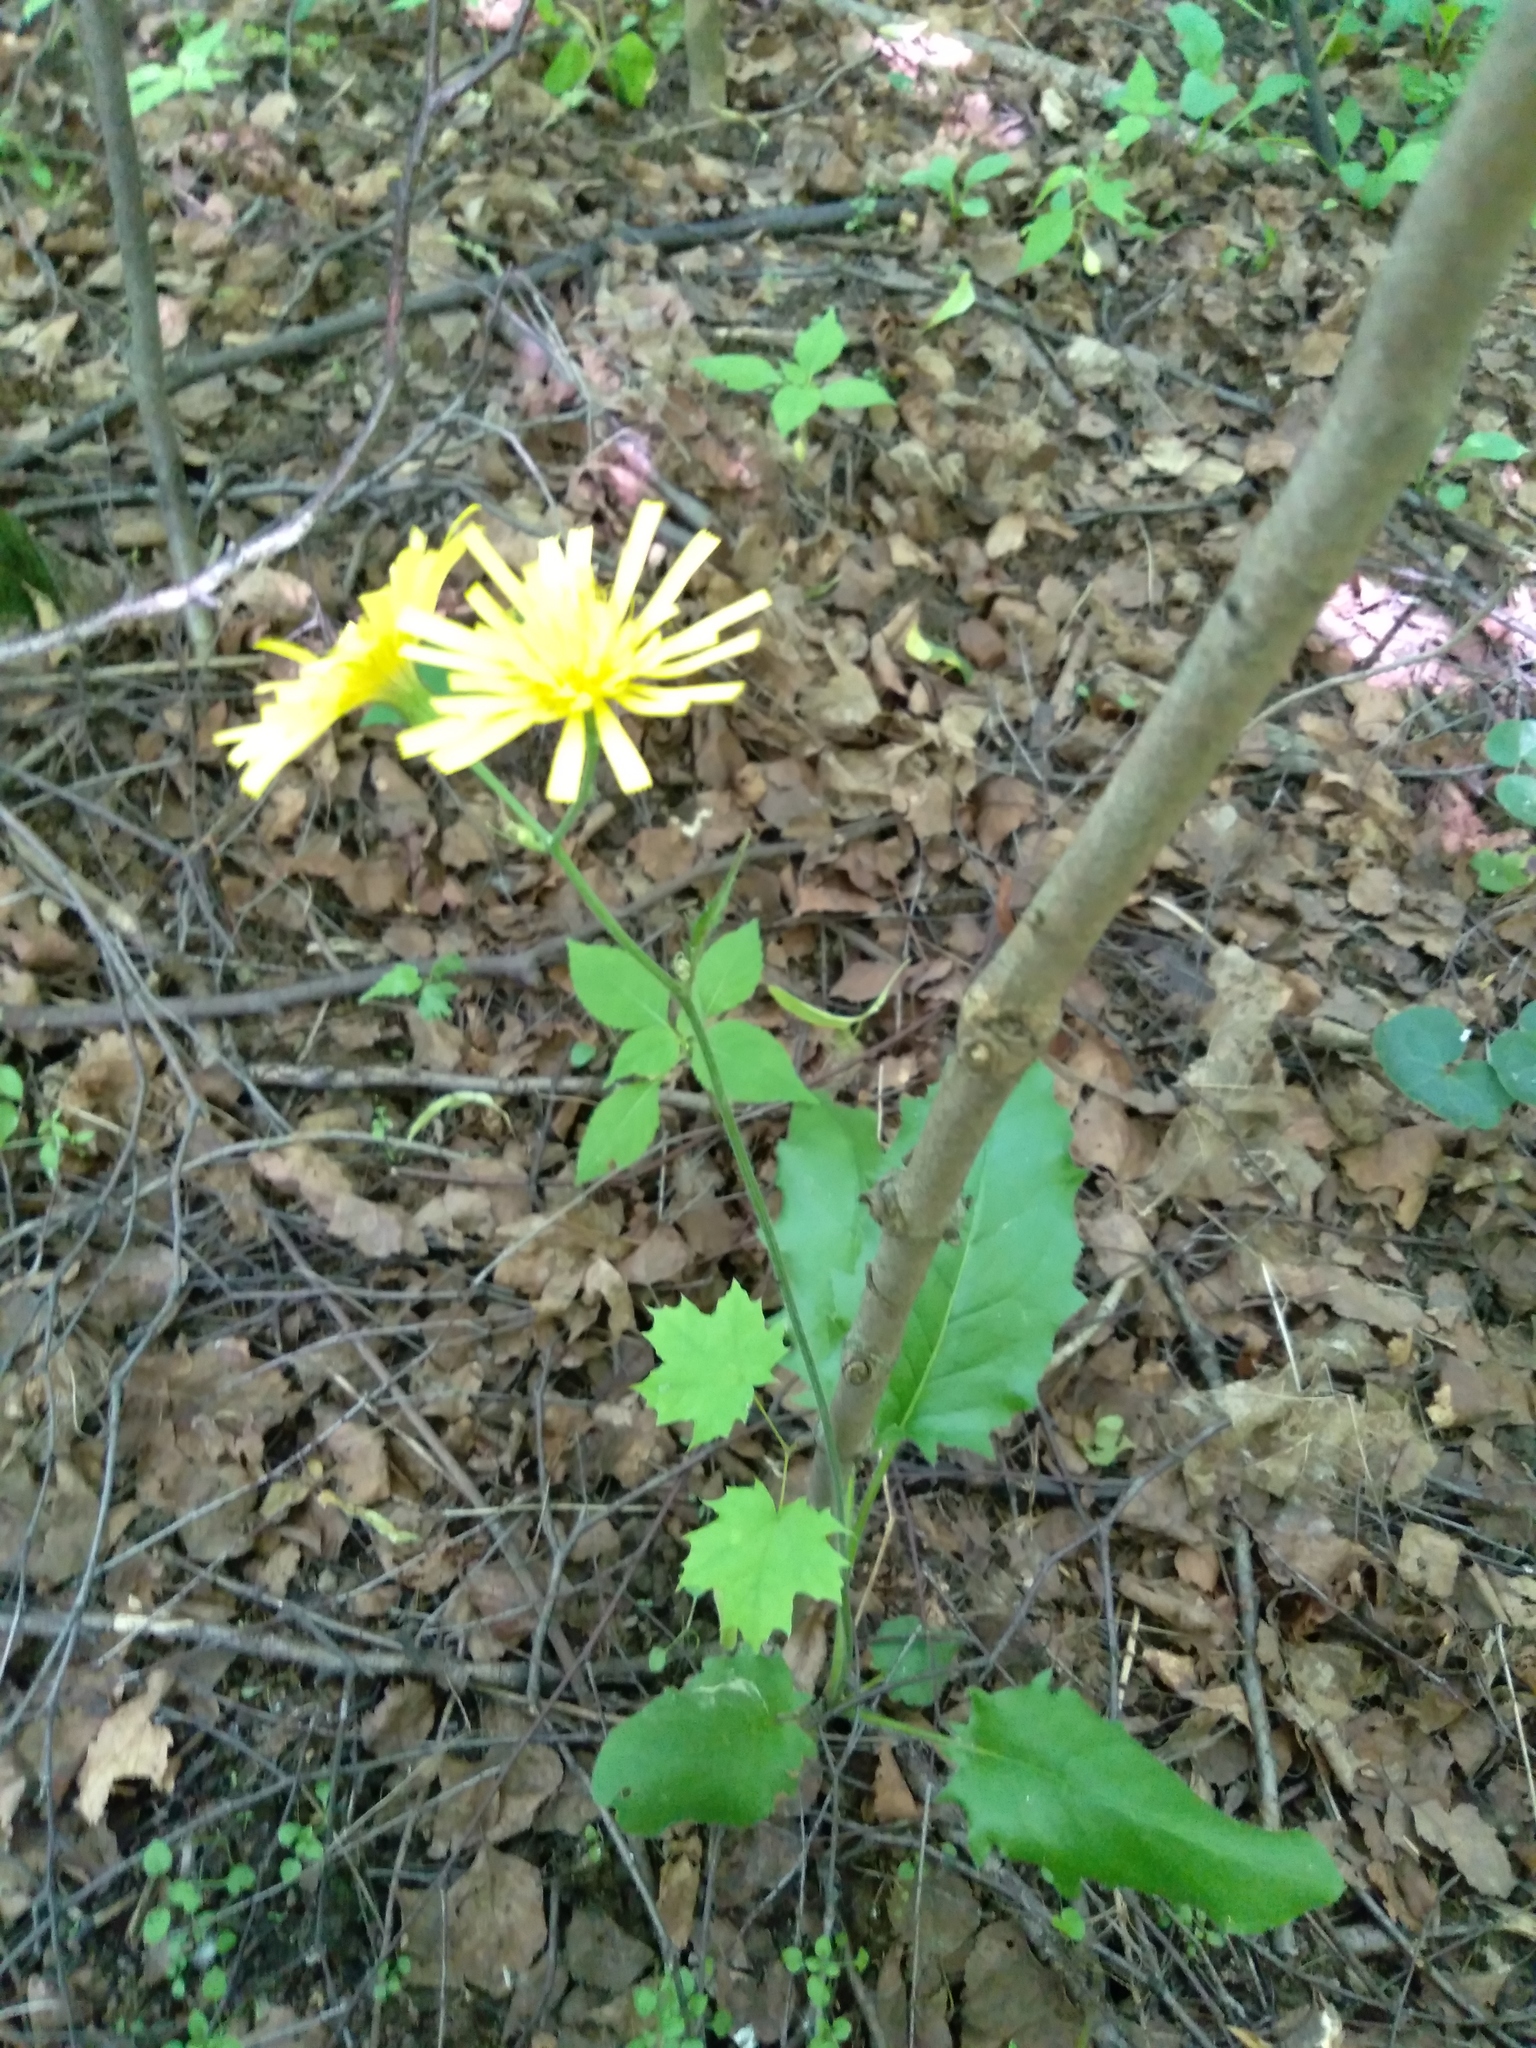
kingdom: Plantae
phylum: Tracheophyta
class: Magnoliopsida
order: Asterales
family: Asteraceae
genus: Hieracium
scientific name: Hieracium murorum
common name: Wall hawkweed
